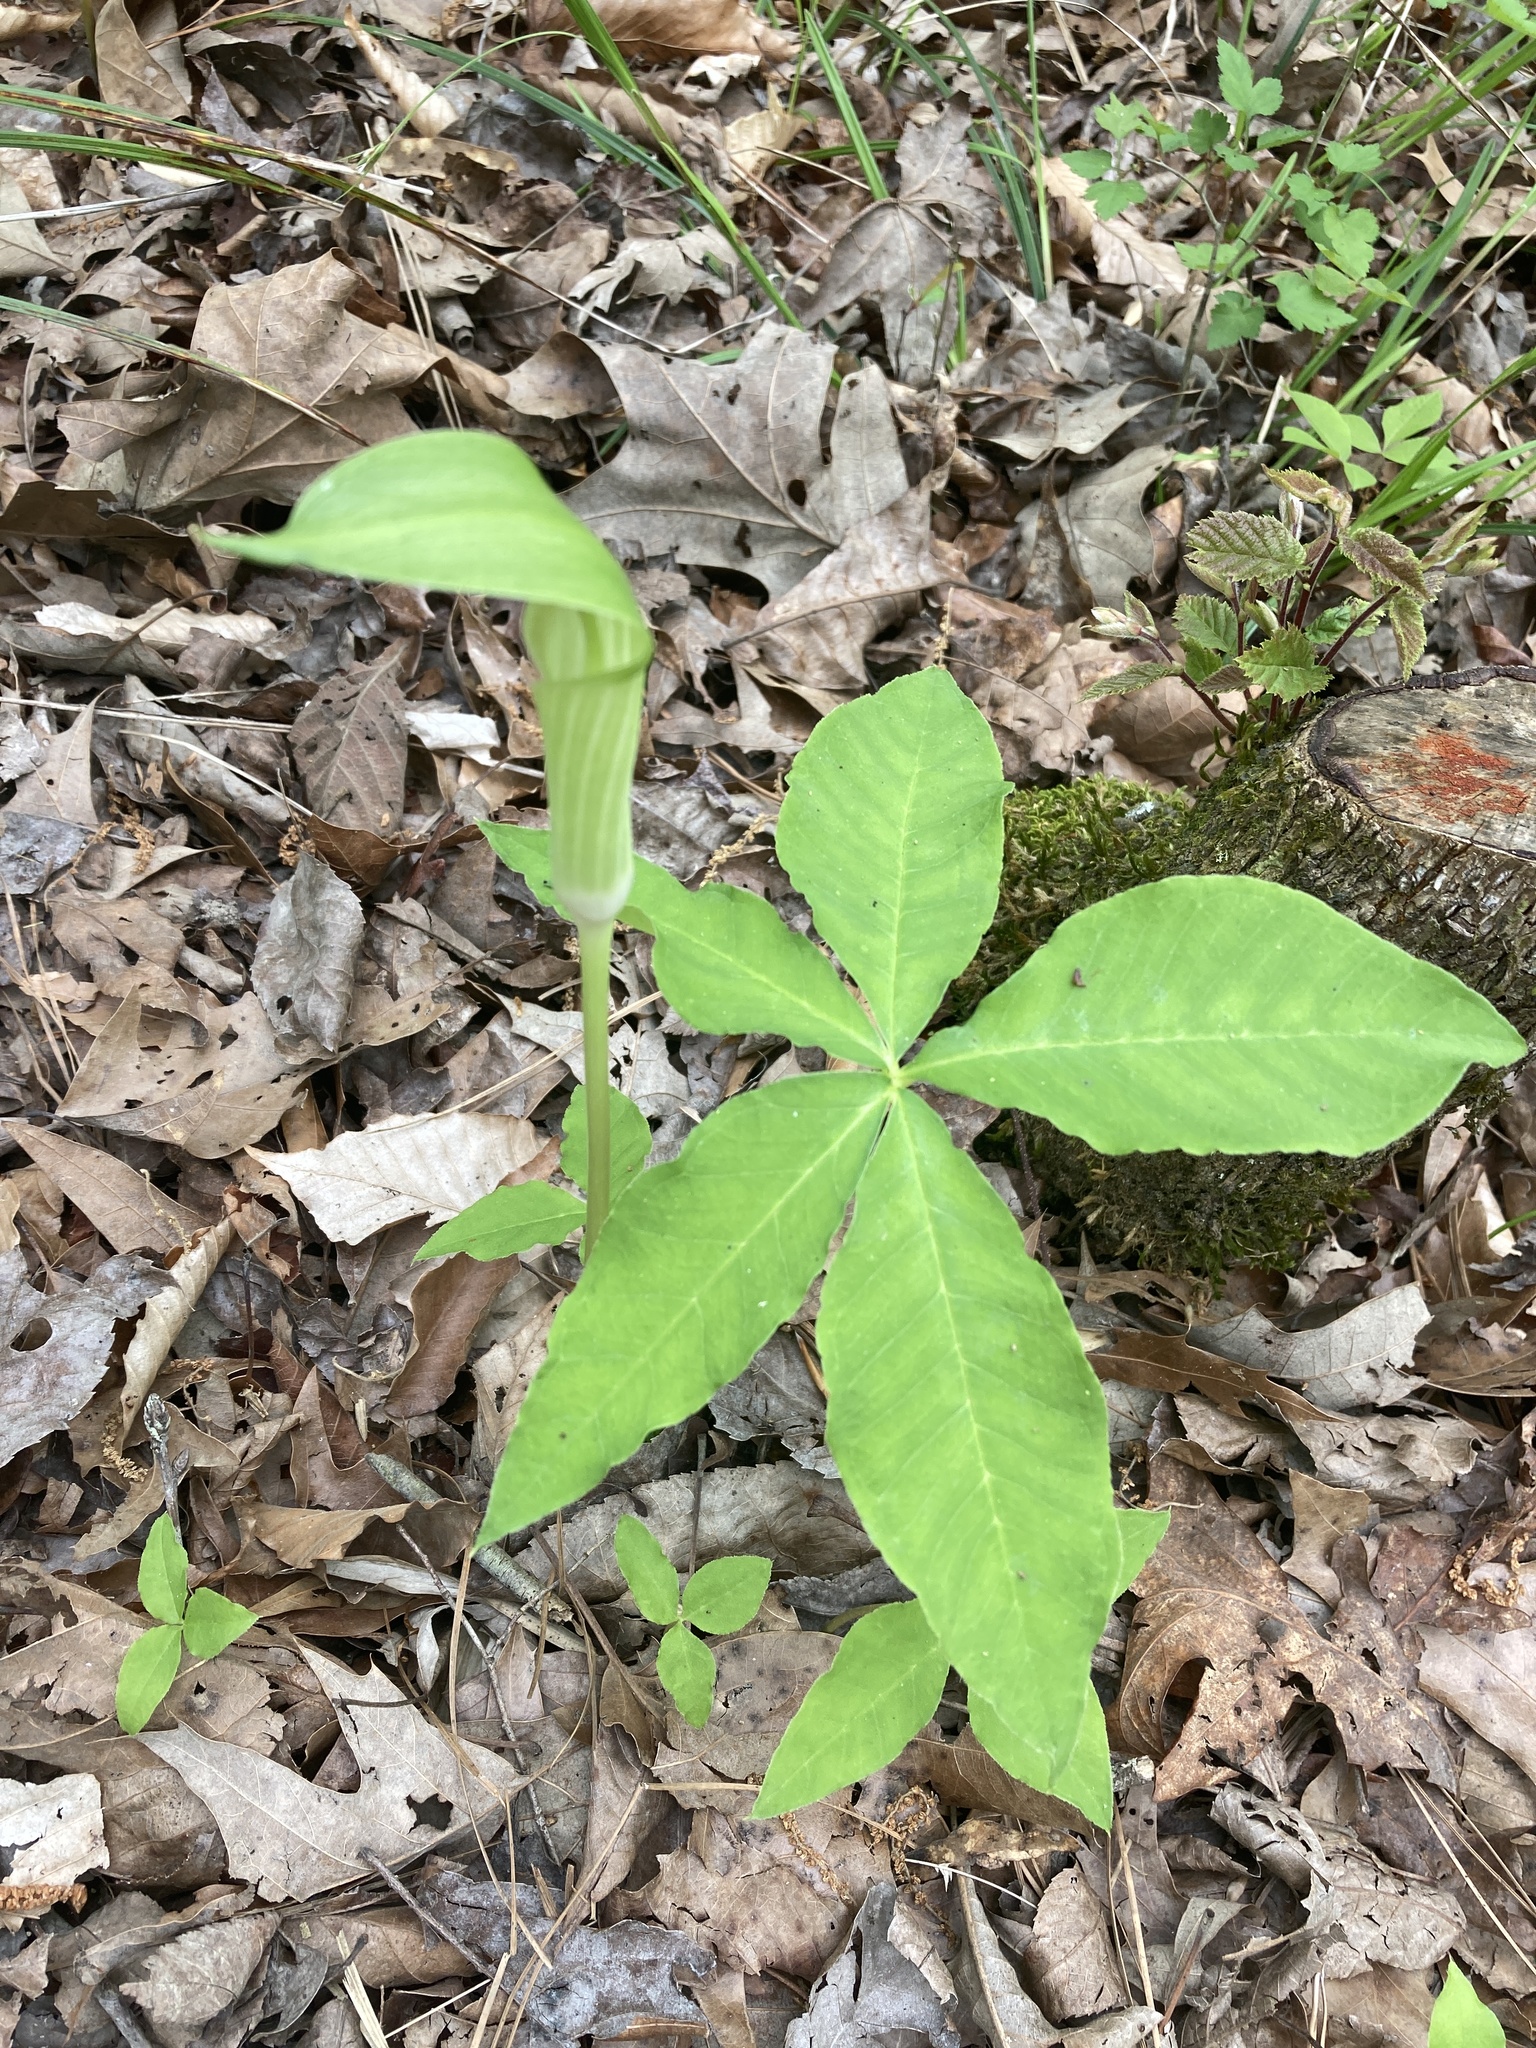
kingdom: Plantae
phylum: Tracheophyta
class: Liliopsida
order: Alismatales
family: Araceae
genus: Arisaema
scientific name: Arisaema quinatum
